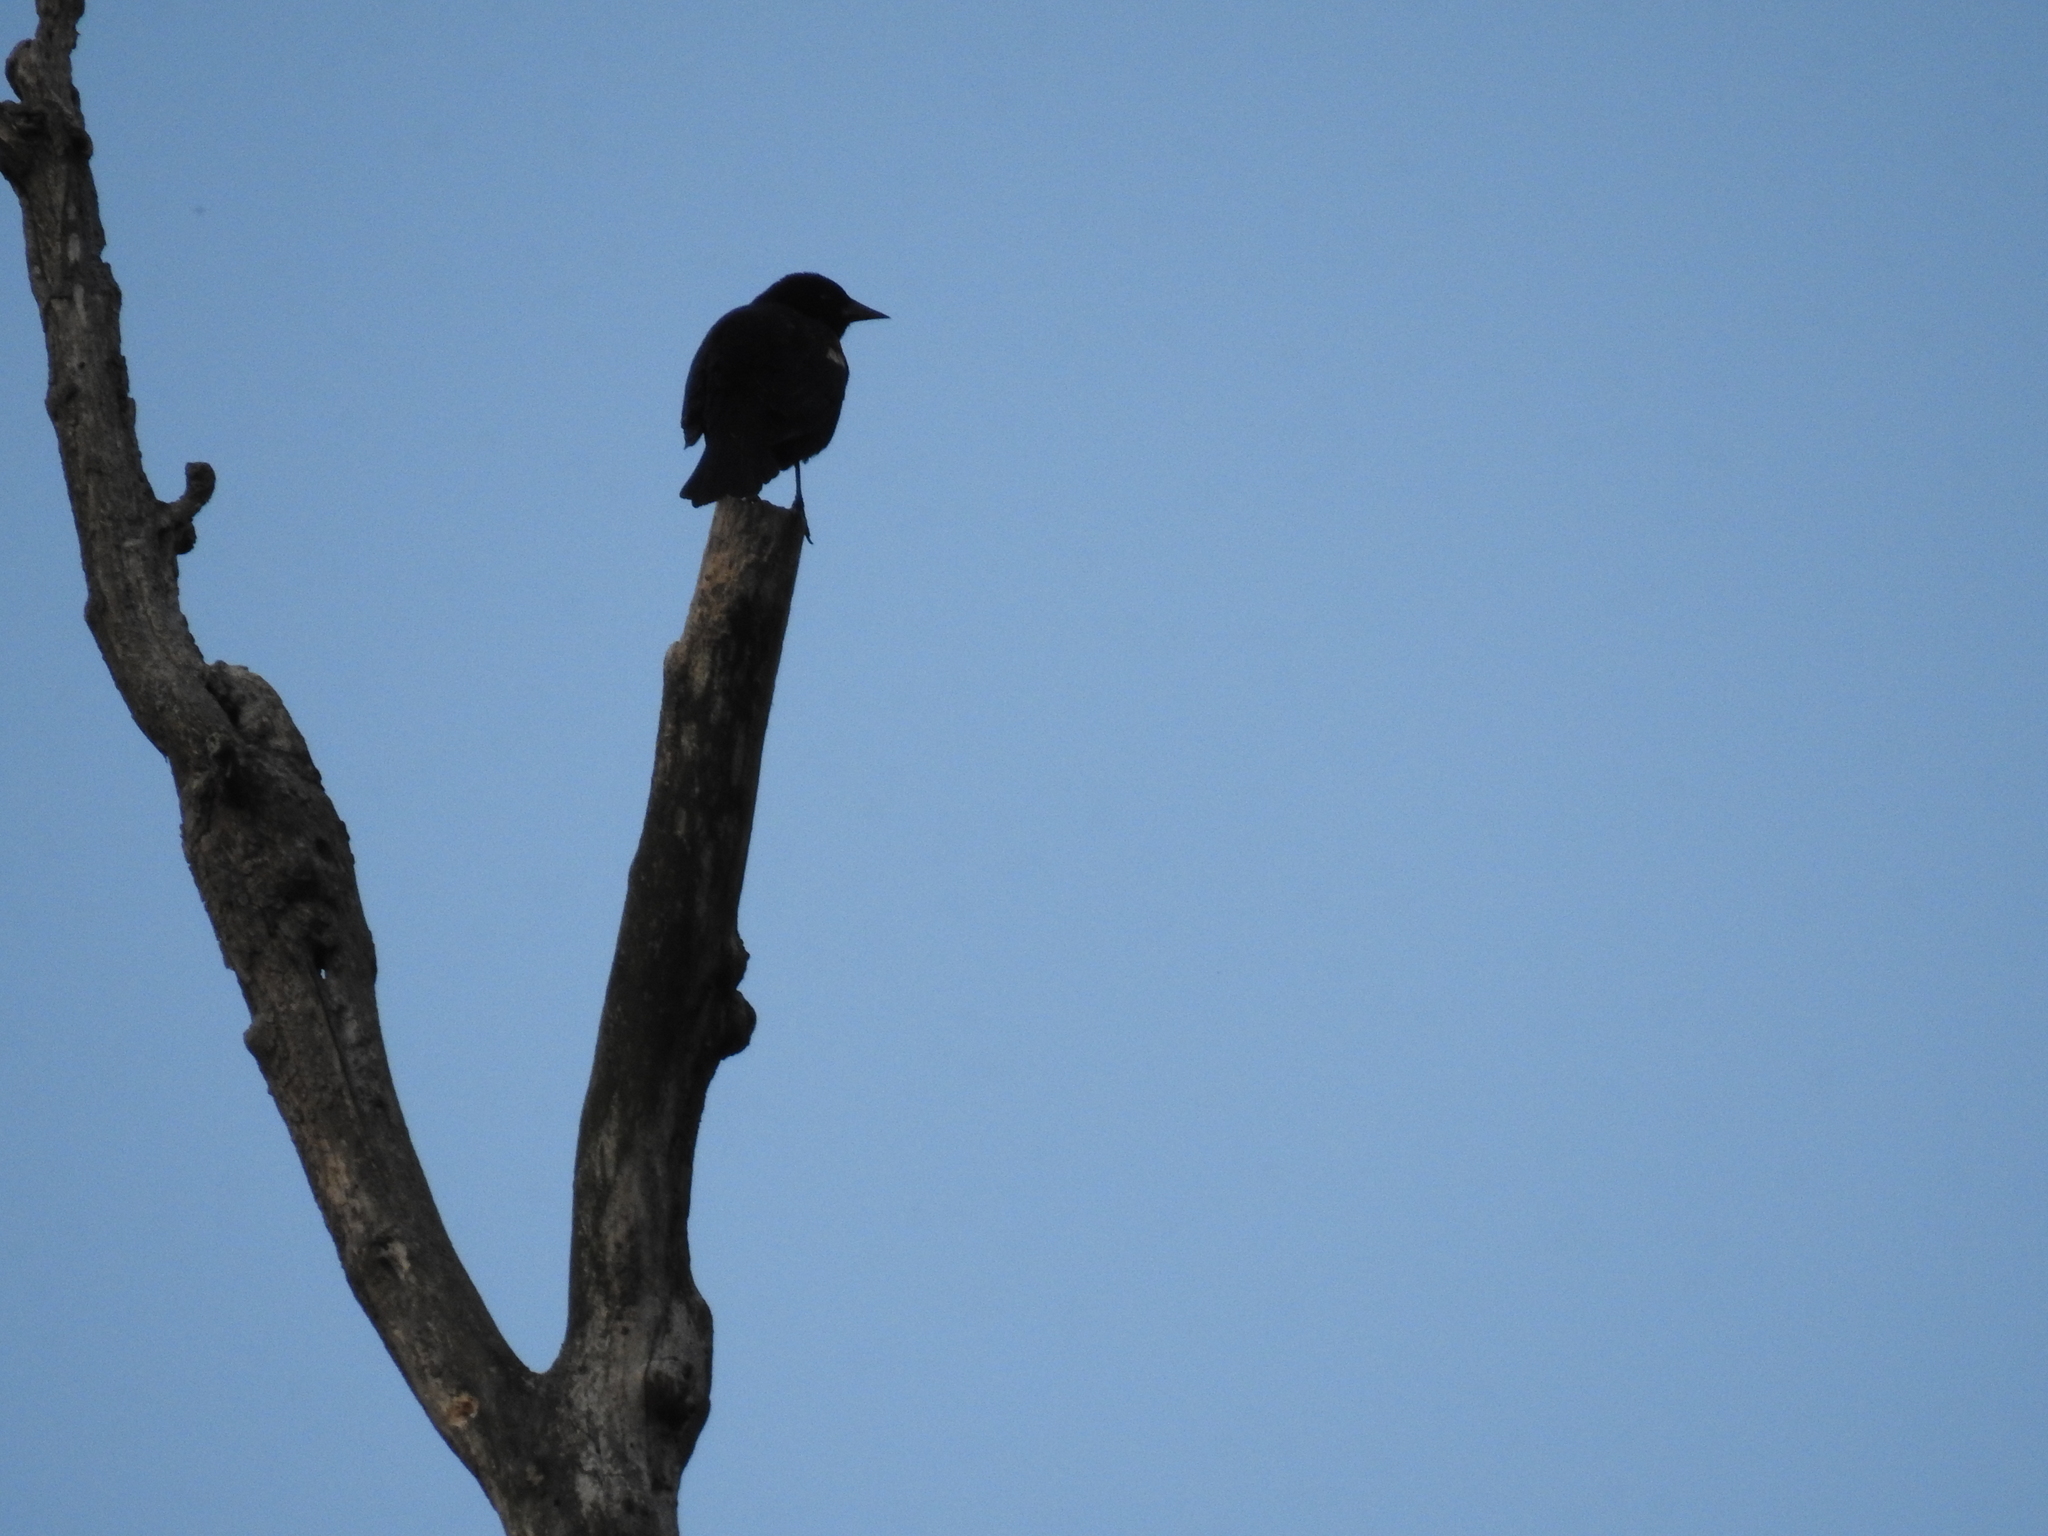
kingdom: Animalia
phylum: Chordata
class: Aves
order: Passeriformes
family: Icteridae
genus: Agelaius
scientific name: Agelaius phoeniceus
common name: Red-winged blackbird
